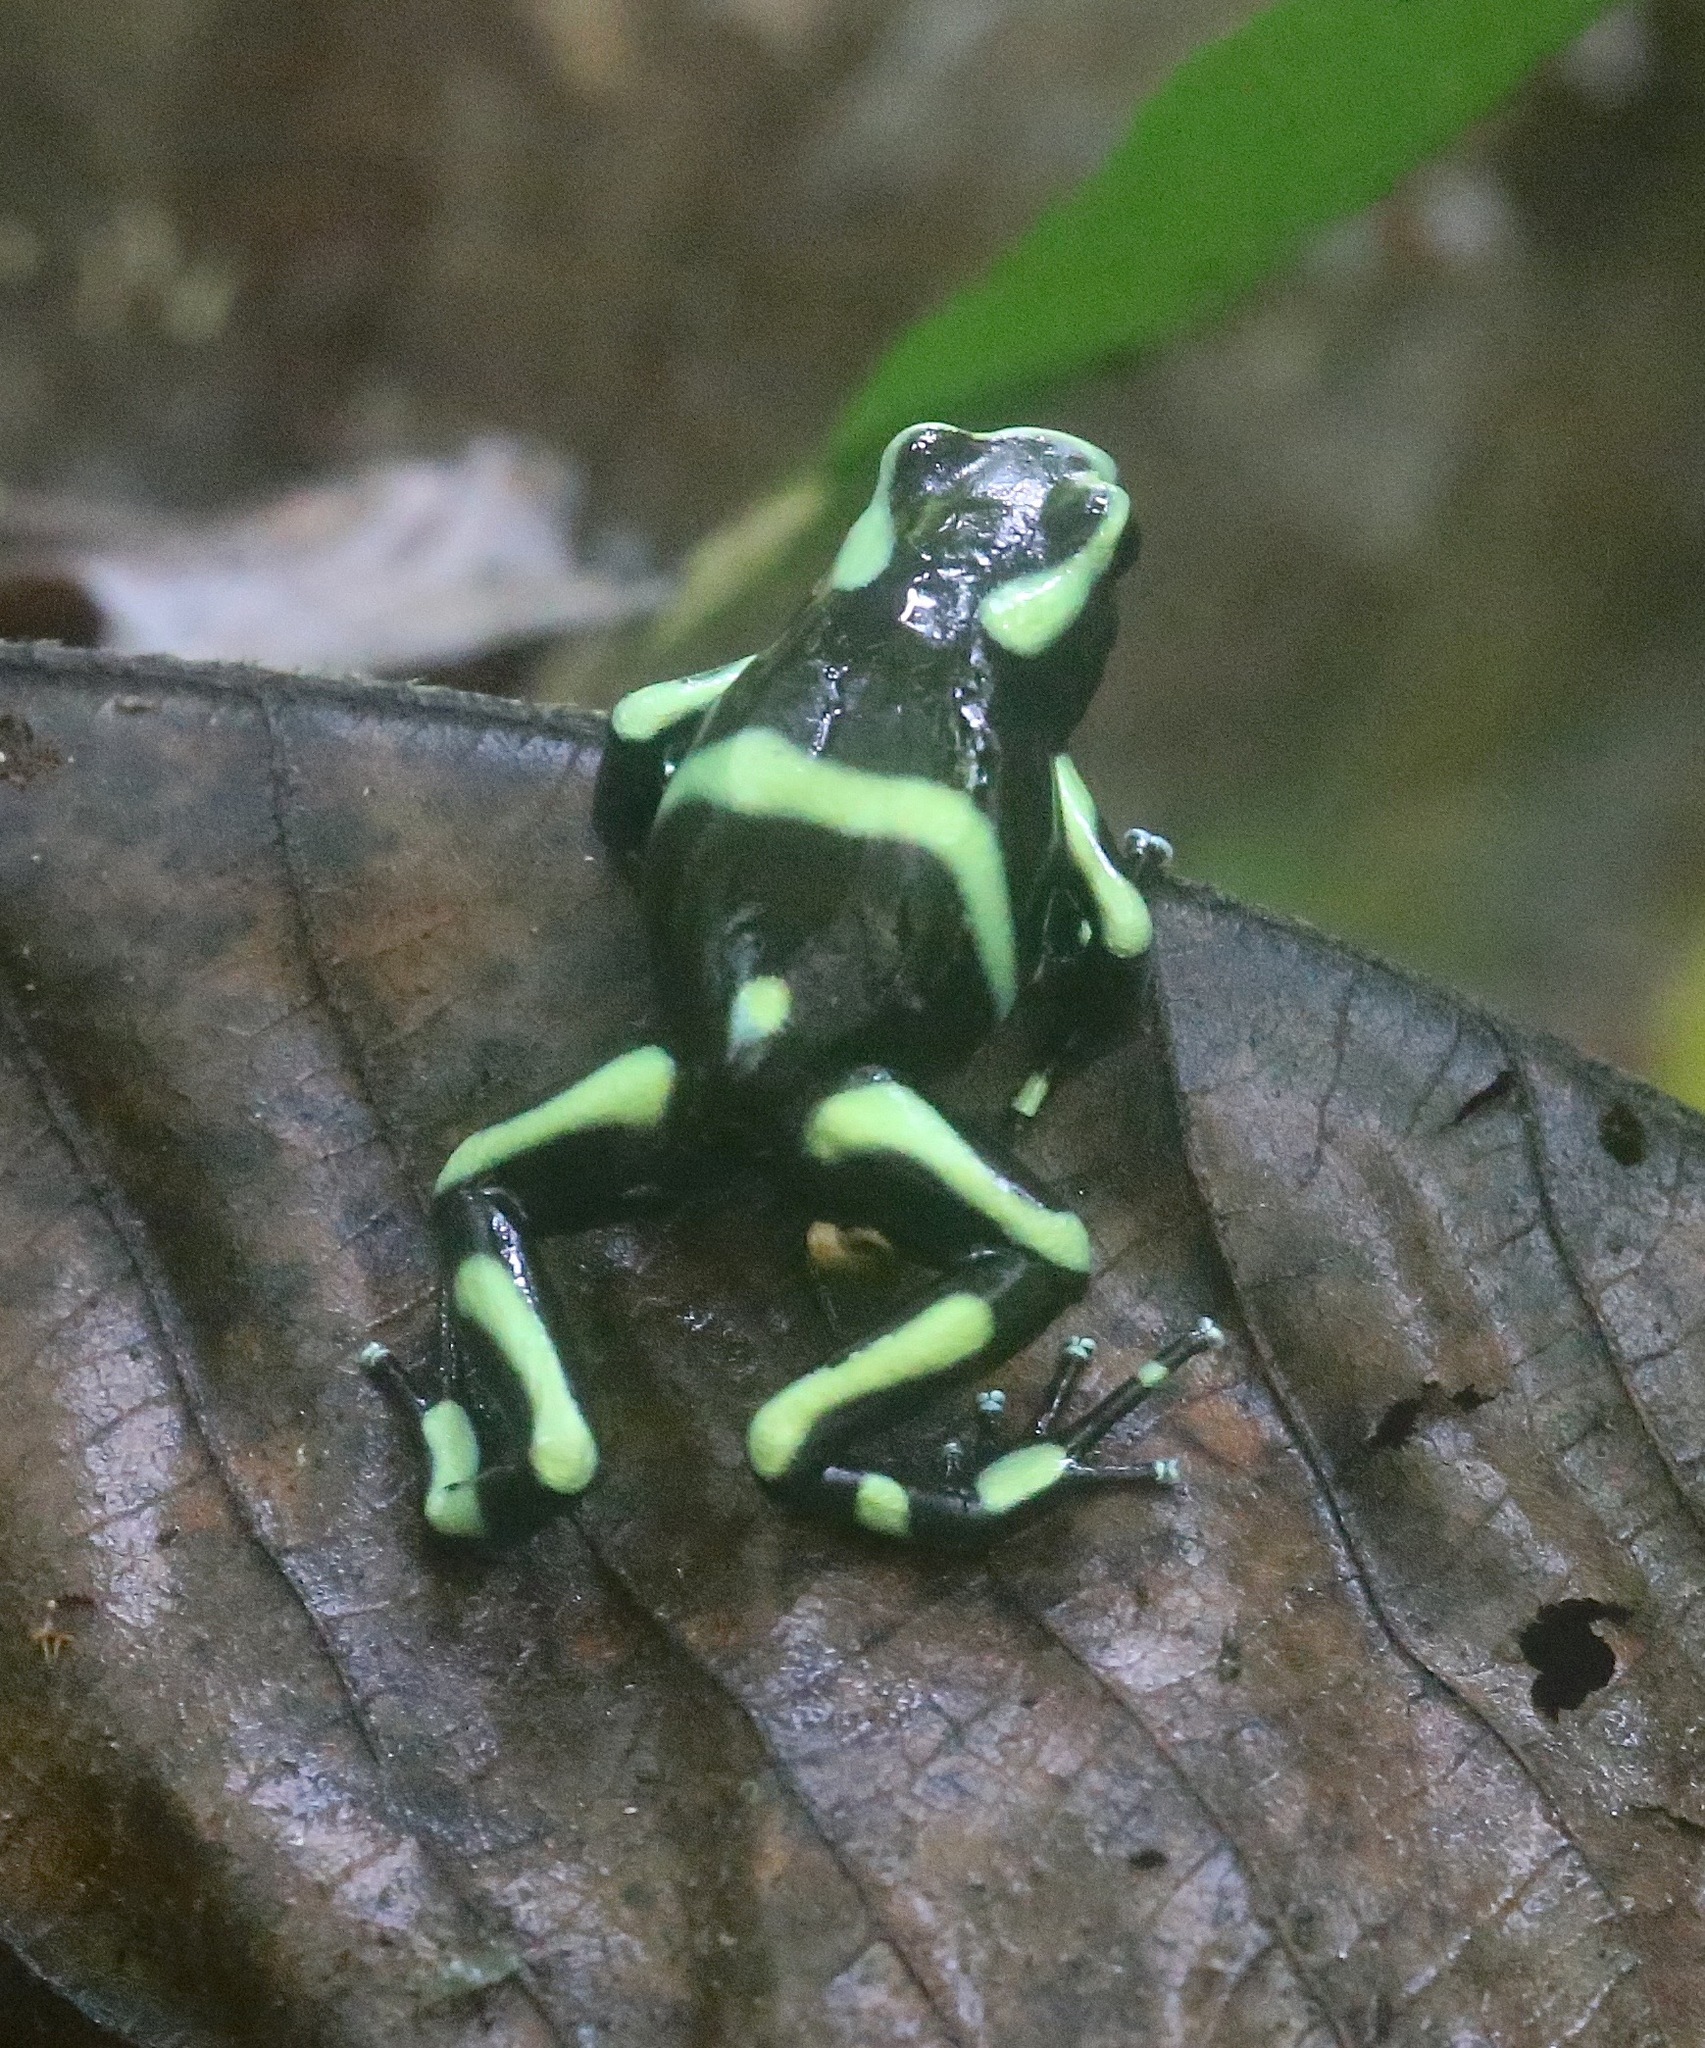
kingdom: Animalia
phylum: Chordata
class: Amphibia
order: Anura
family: Dendrobatidae
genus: Dendrobates
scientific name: Dendrobates auratus
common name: Green and black poison dart frog
